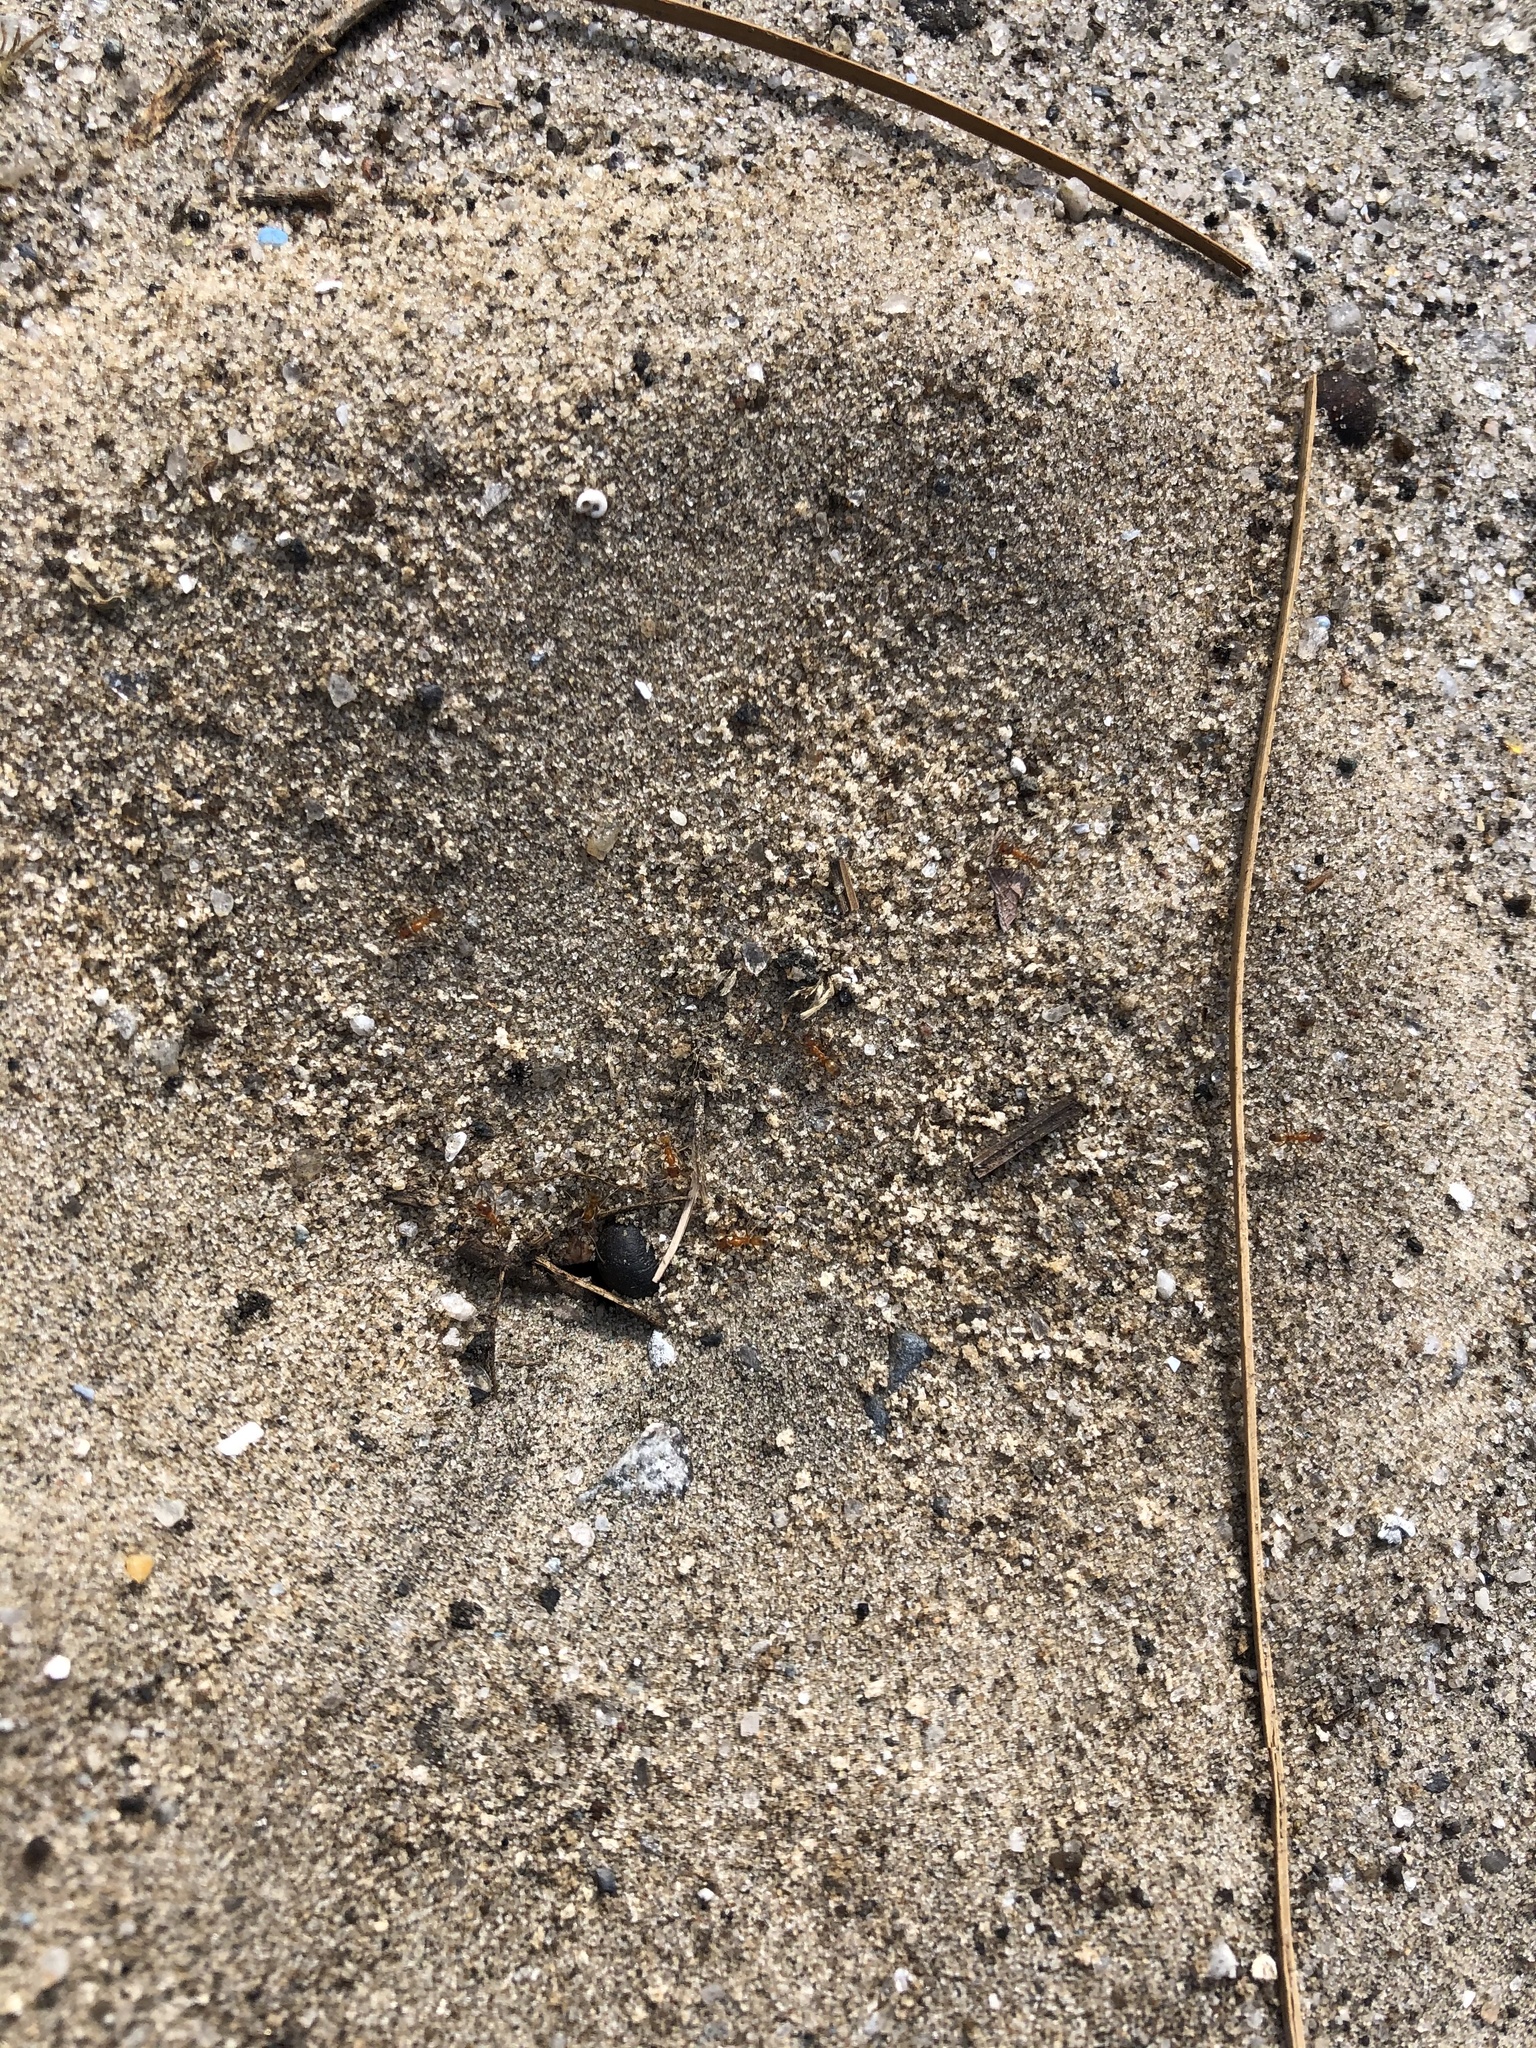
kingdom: Animalia
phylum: Arthropoda
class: Insecta
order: Hymenoptera
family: Formicidae
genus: Dorymyrmex
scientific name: Dorymyrmex bureni
